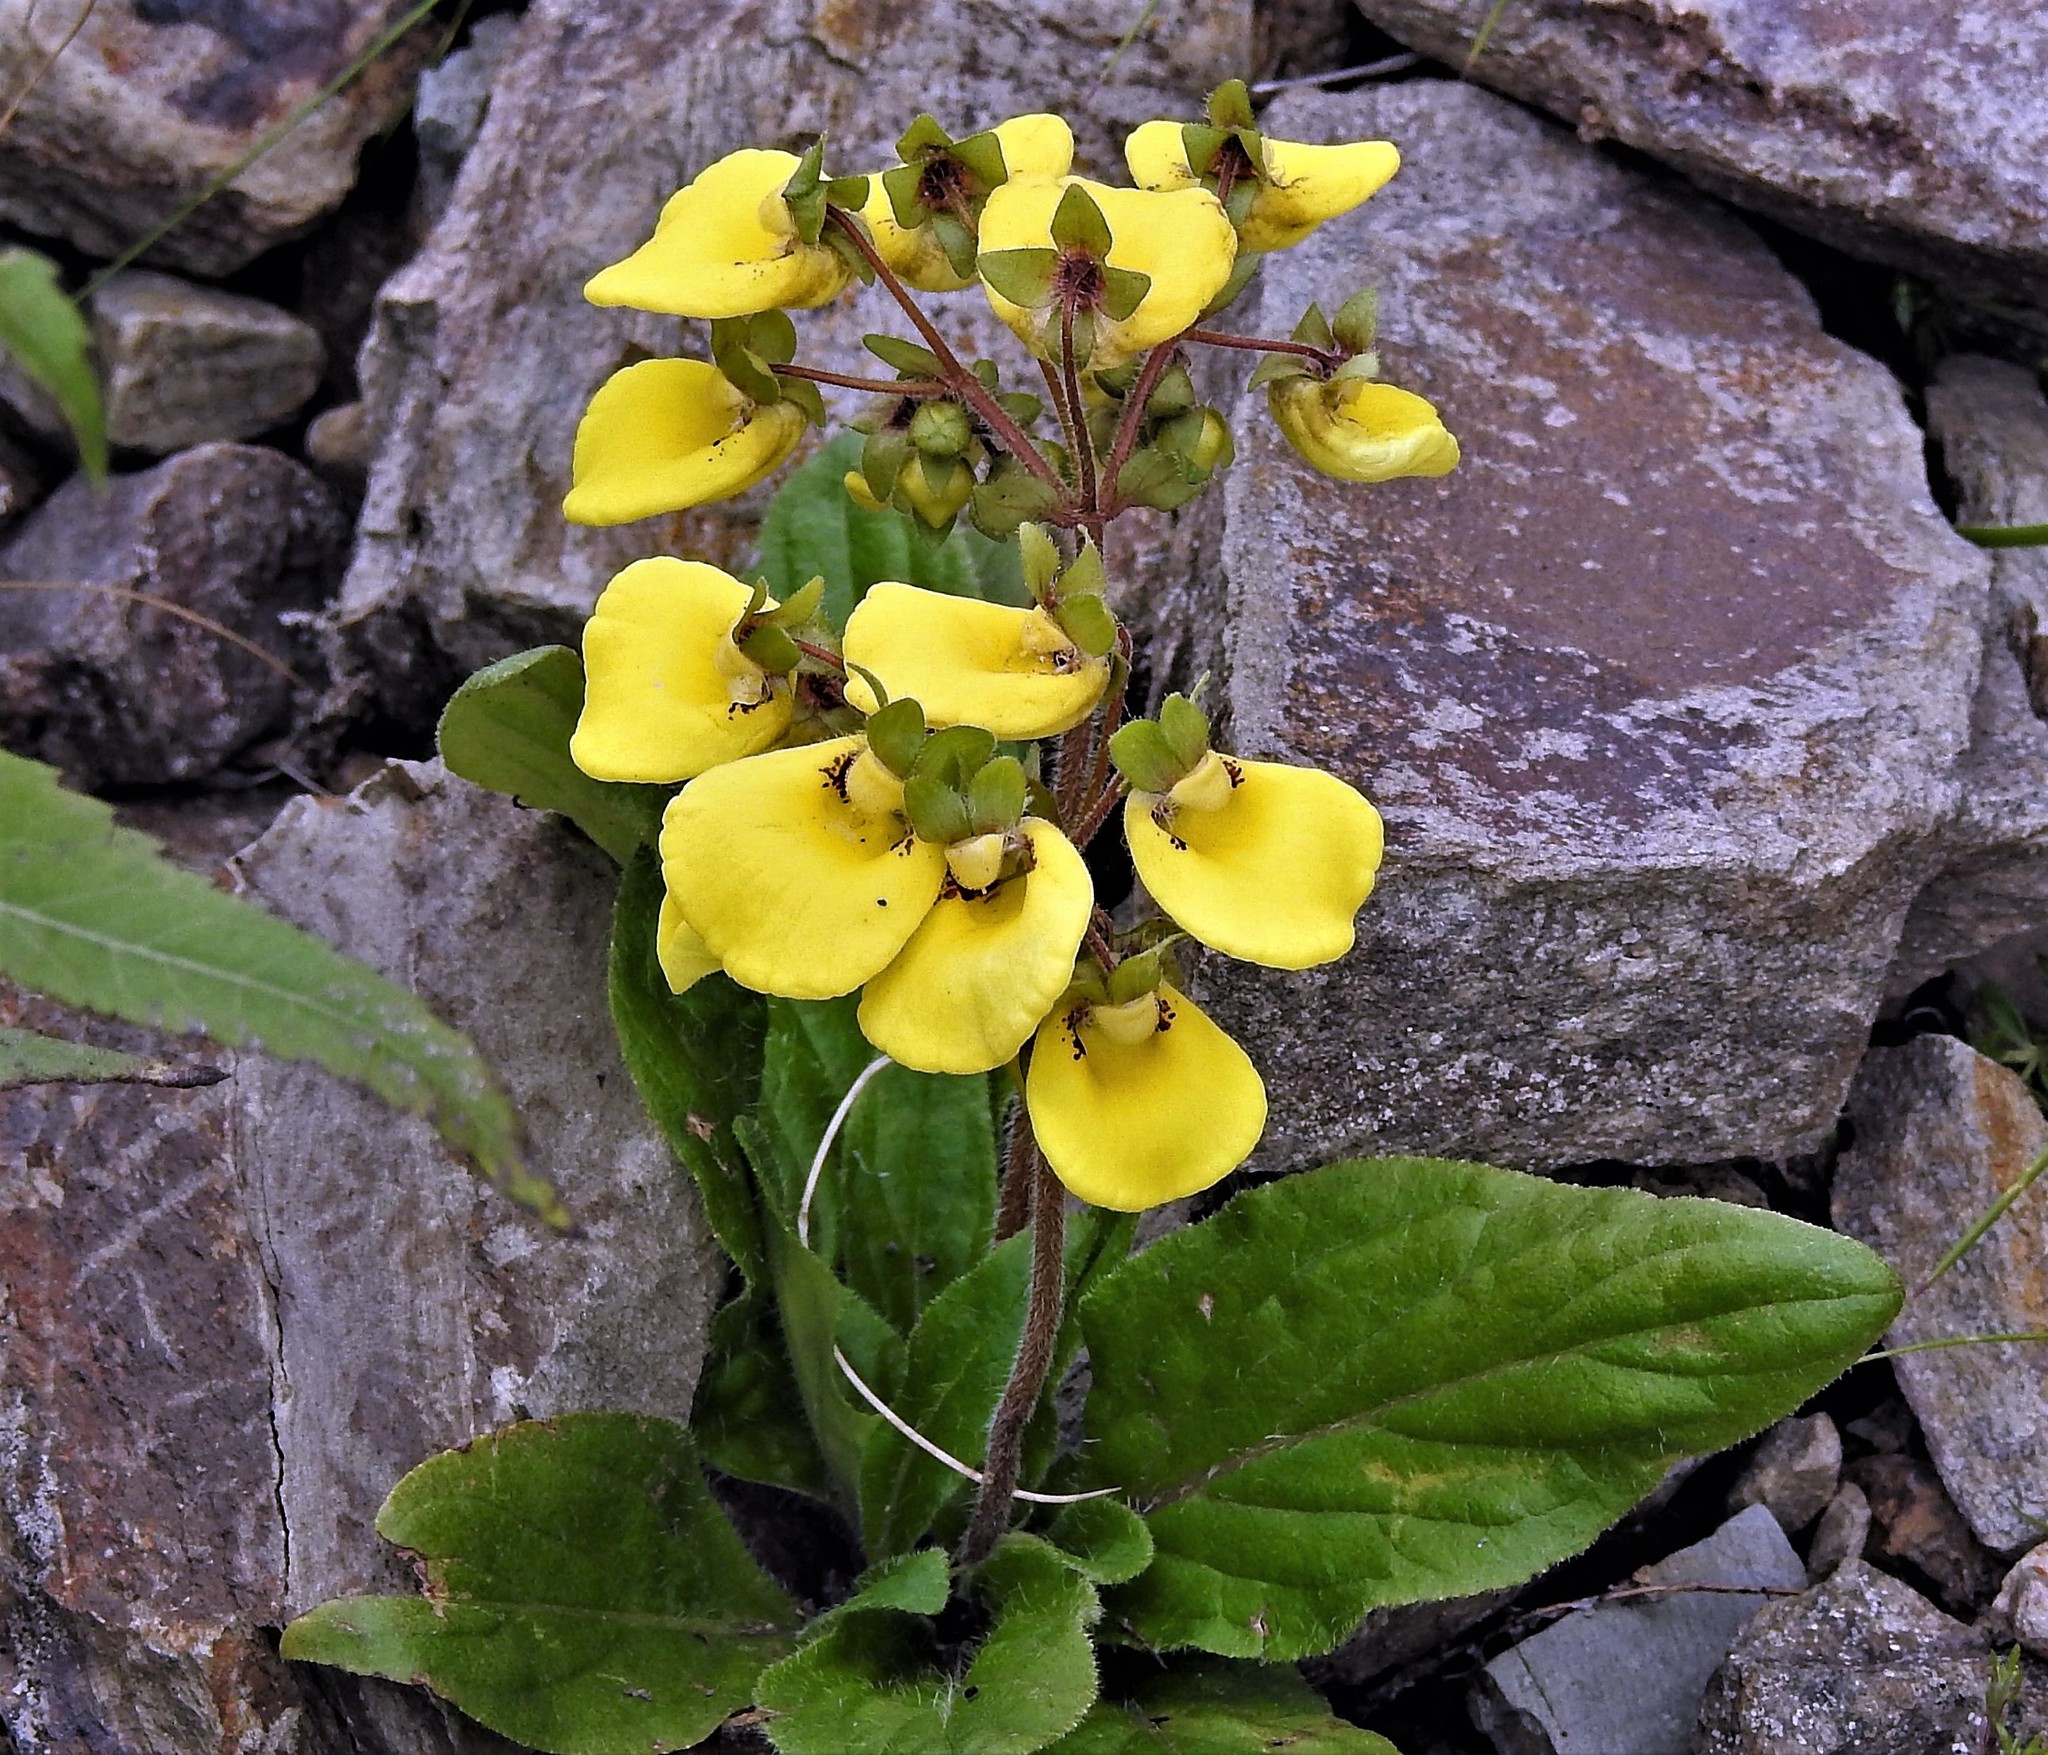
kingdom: Plantae
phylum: Tracheophyta
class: Magnoliopsida
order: Lamiales
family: Calceolariaceae
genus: Calceolaria
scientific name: Calceolaria umbellata
